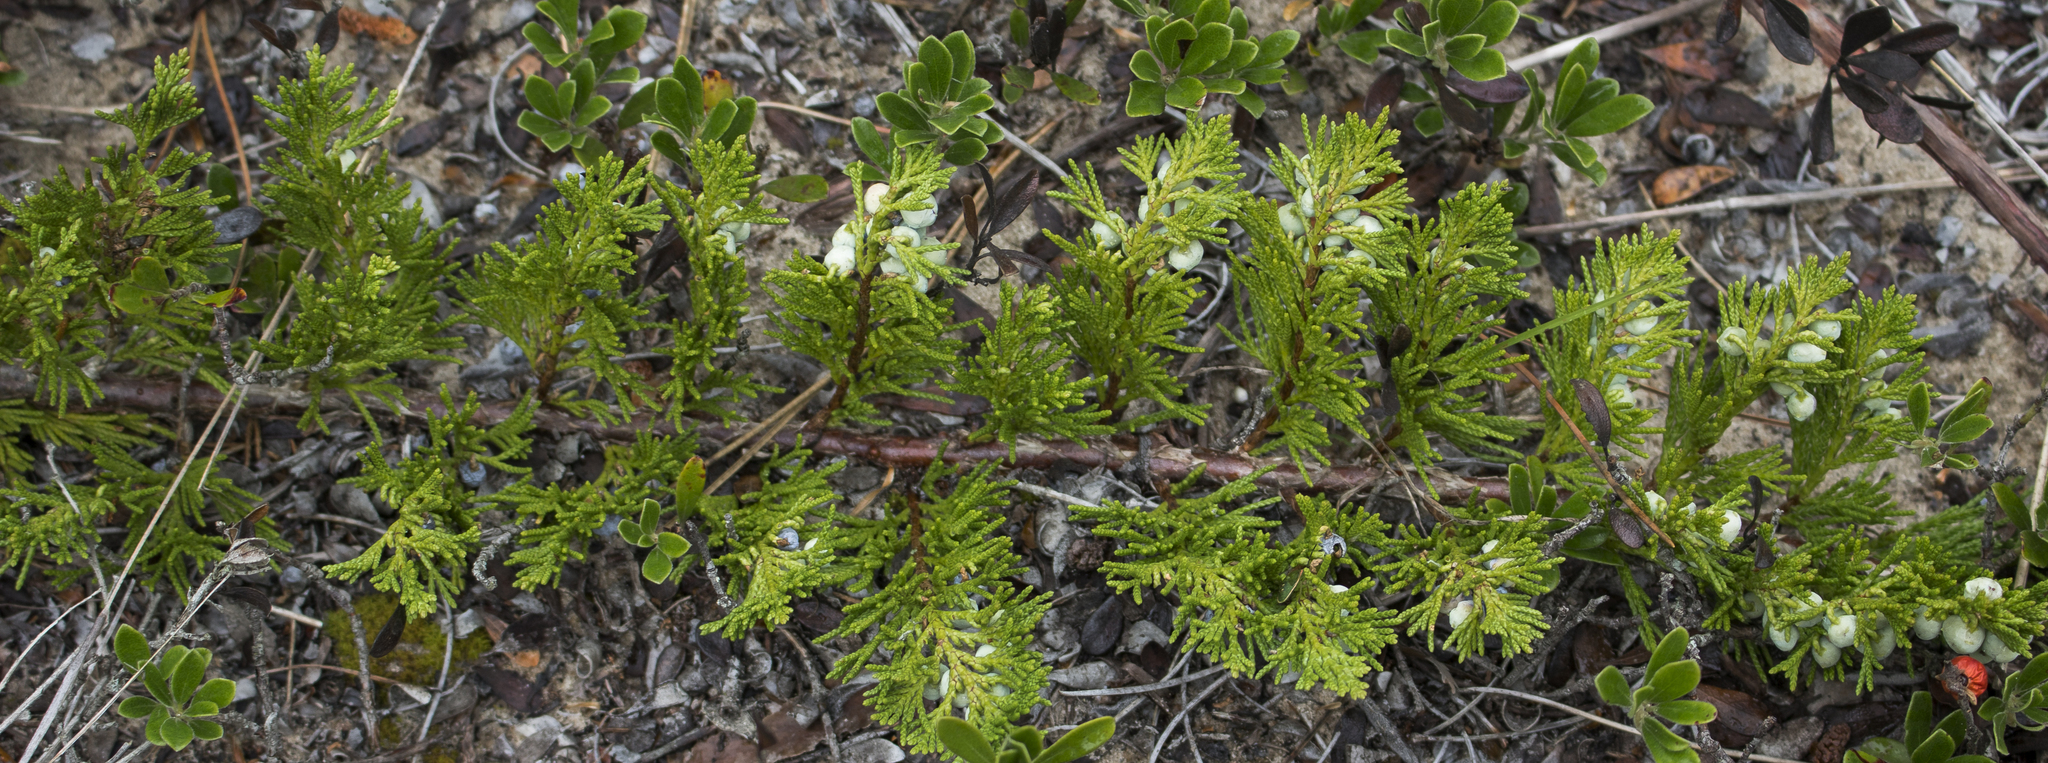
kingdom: Plantae
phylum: Tracheophyta
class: Pinopsida
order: Pinales
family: Cupressaceae
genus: Juniperus
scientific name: Juniperus horizontalis
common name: Creeping juniper
